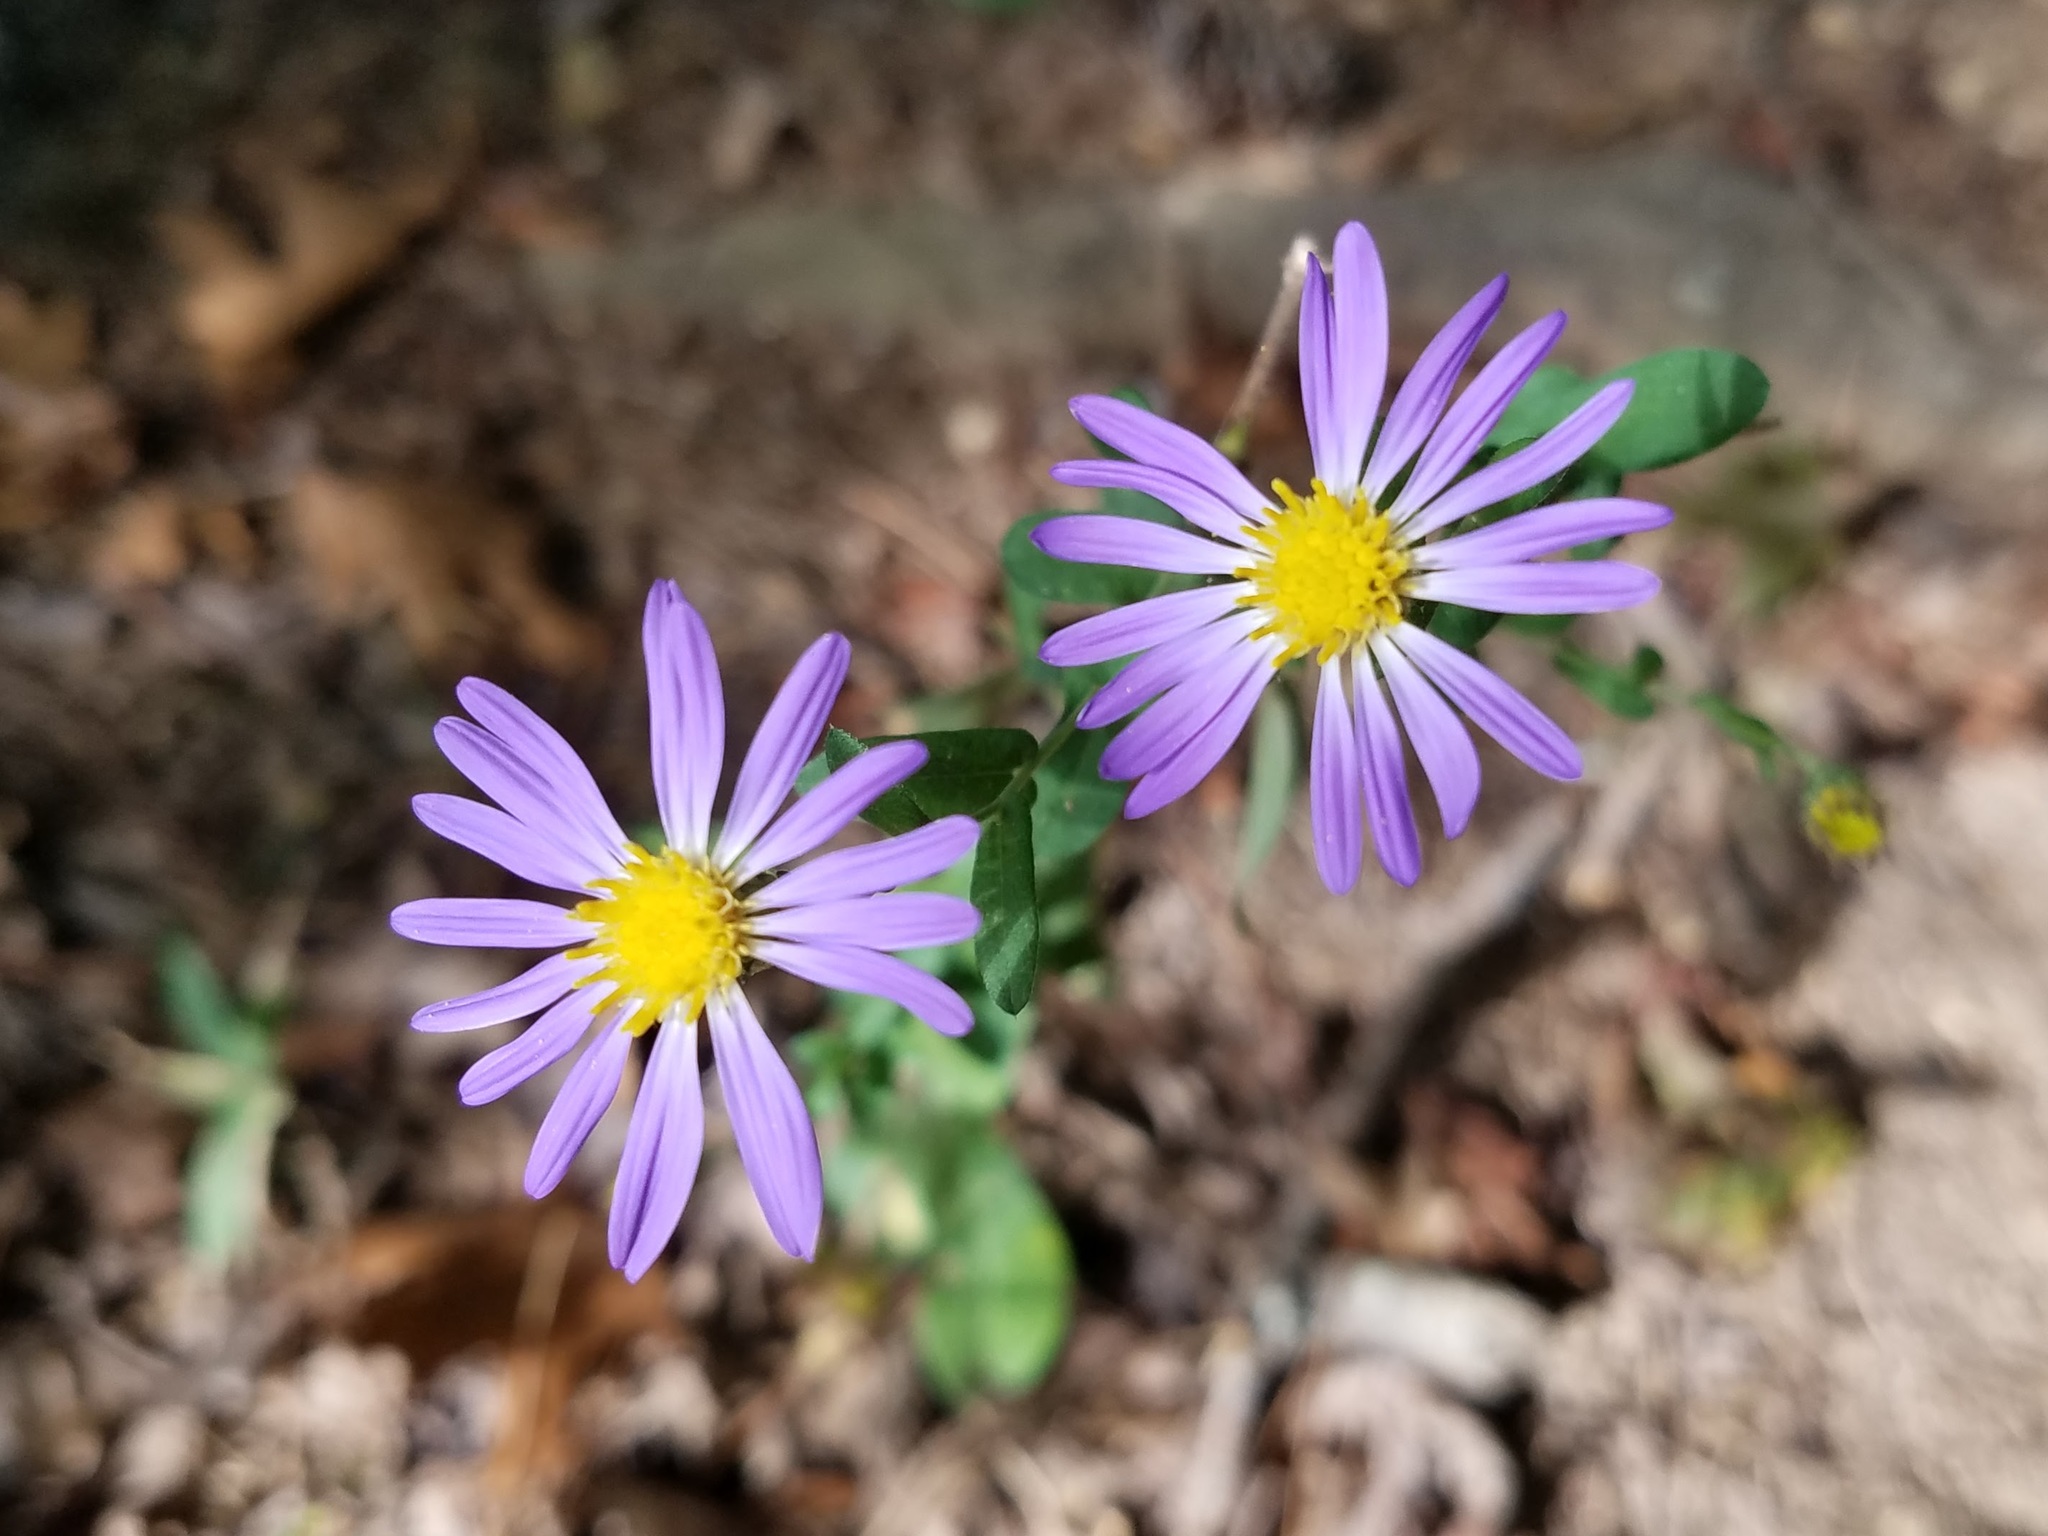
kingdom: Plantae
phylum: Tracheophyta
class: Magnoliopsida
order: Asterales
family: Asteraceae
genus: Symphyotrichum
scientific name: Symphyotrichum patens
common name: Late purple aster
